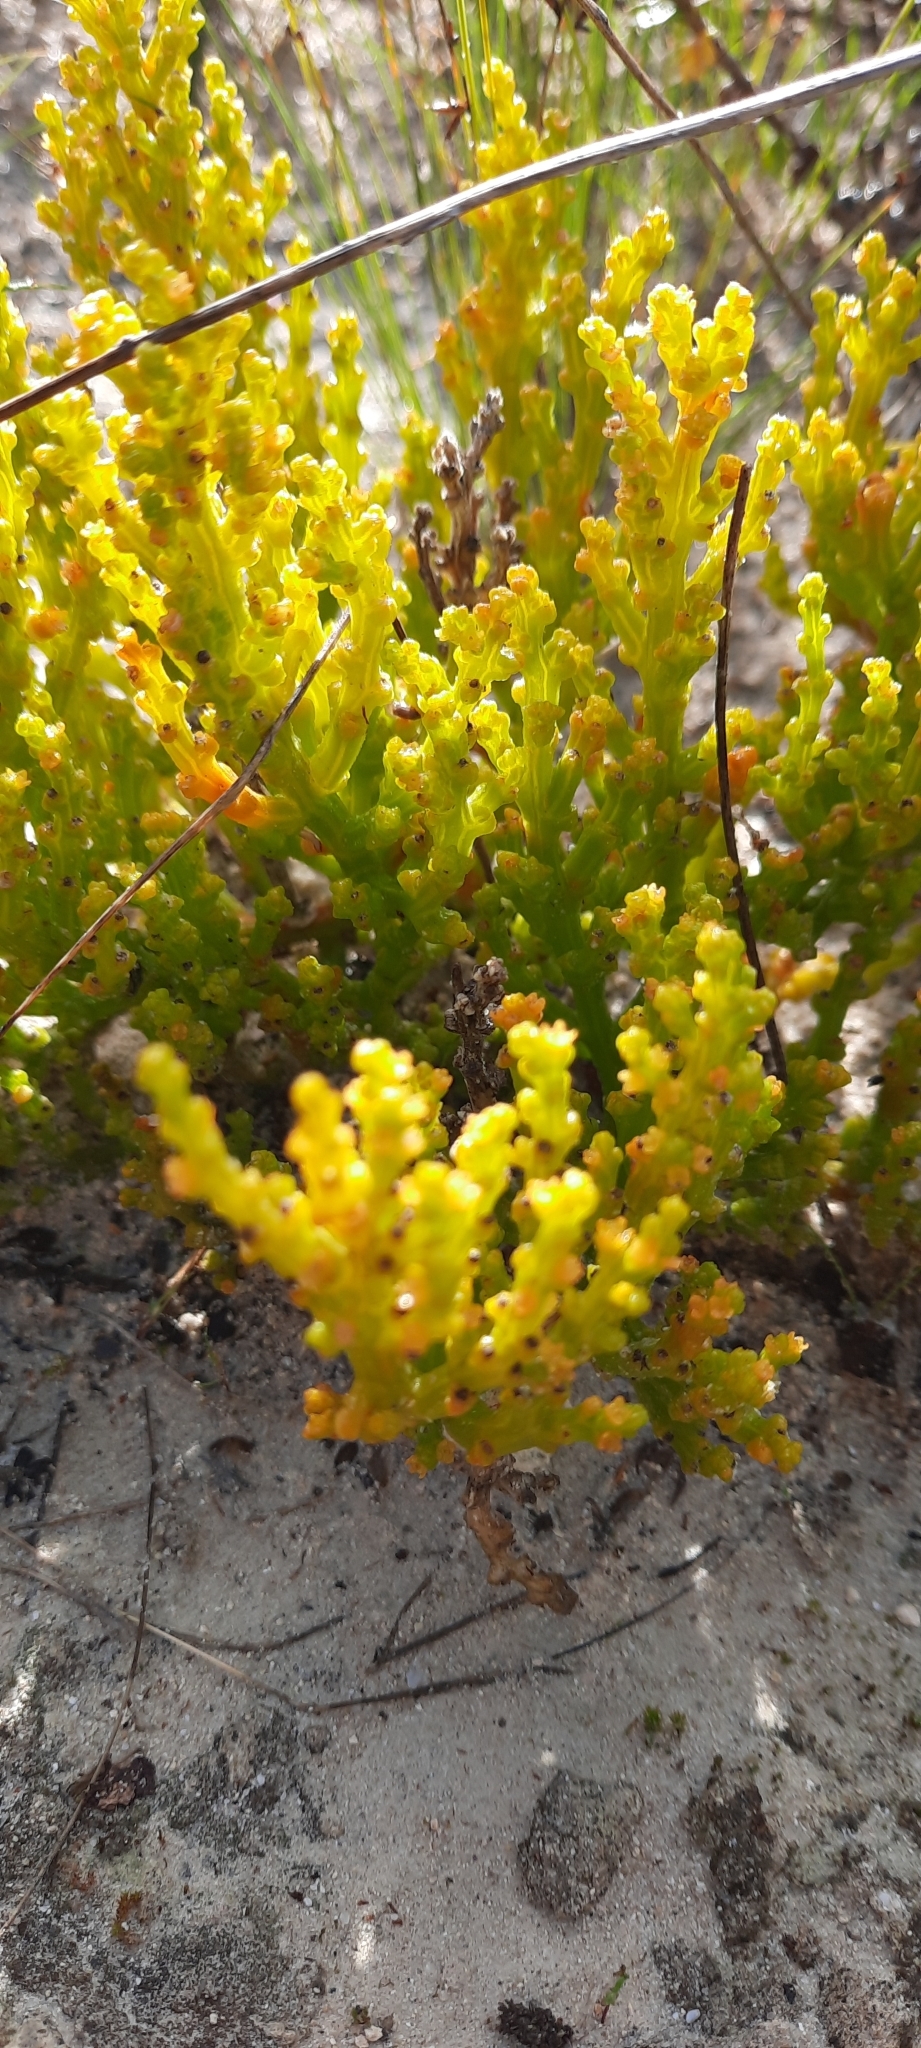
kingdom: Plantae
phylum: Tracheophyta
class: Magnoliopsida
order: Santalales
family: Thesiaceae
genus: Thesium
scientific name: Thesium fragile
